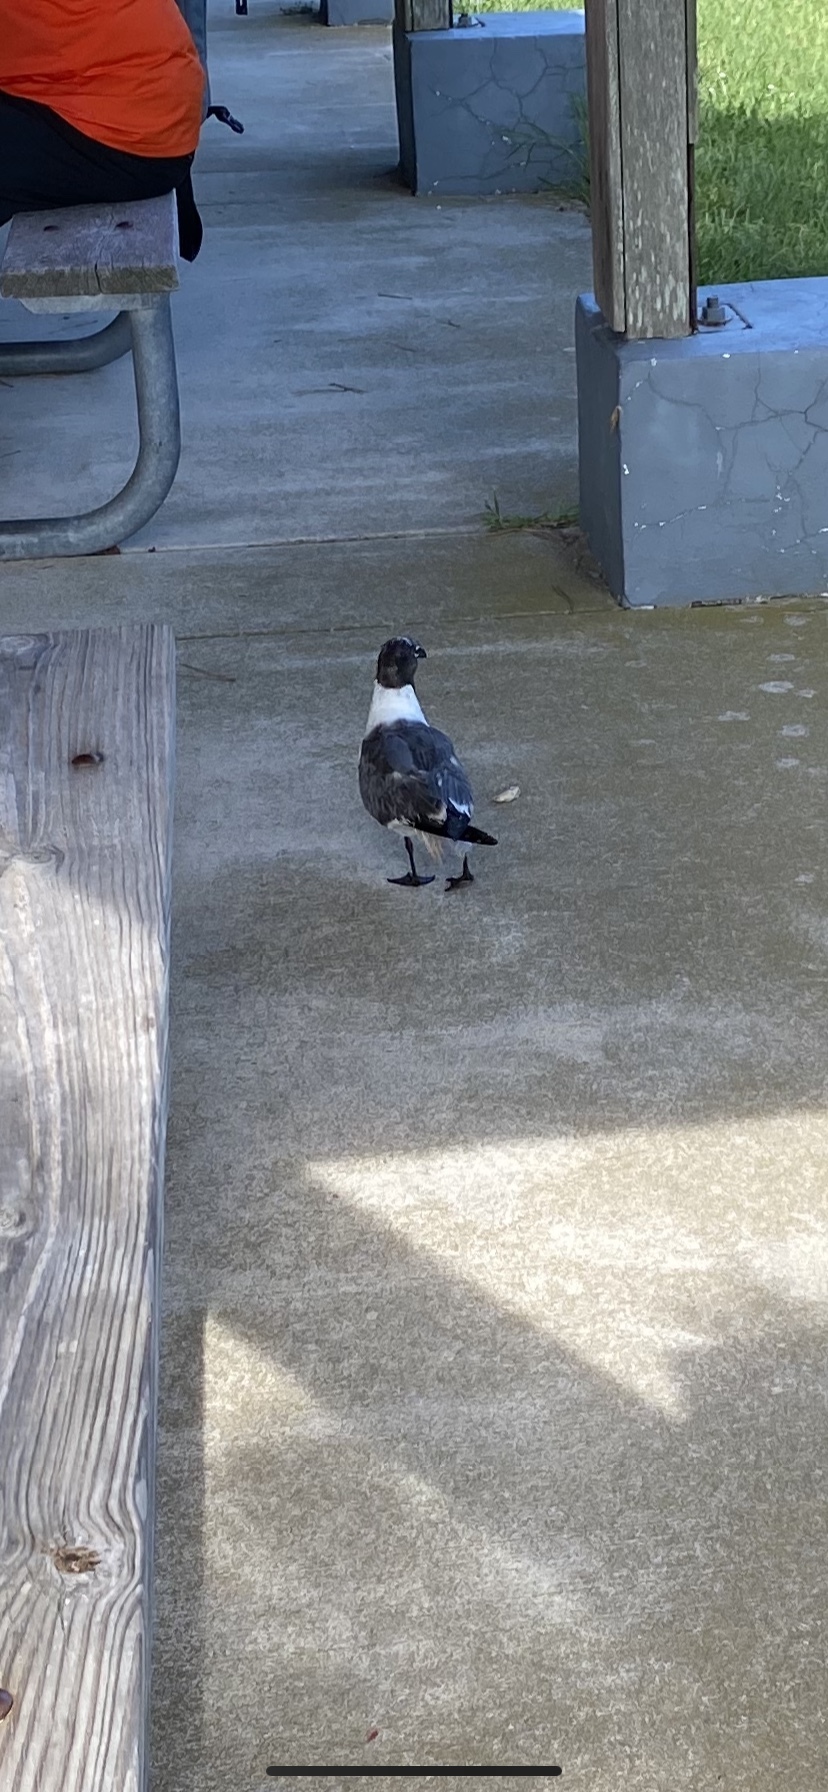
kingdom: Animalia
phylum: Chordata
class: Aves
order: Charadriiformes
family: Laridae
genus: Leucophaeus
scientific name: Leucophaeus atricilla
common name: Laughing gull
